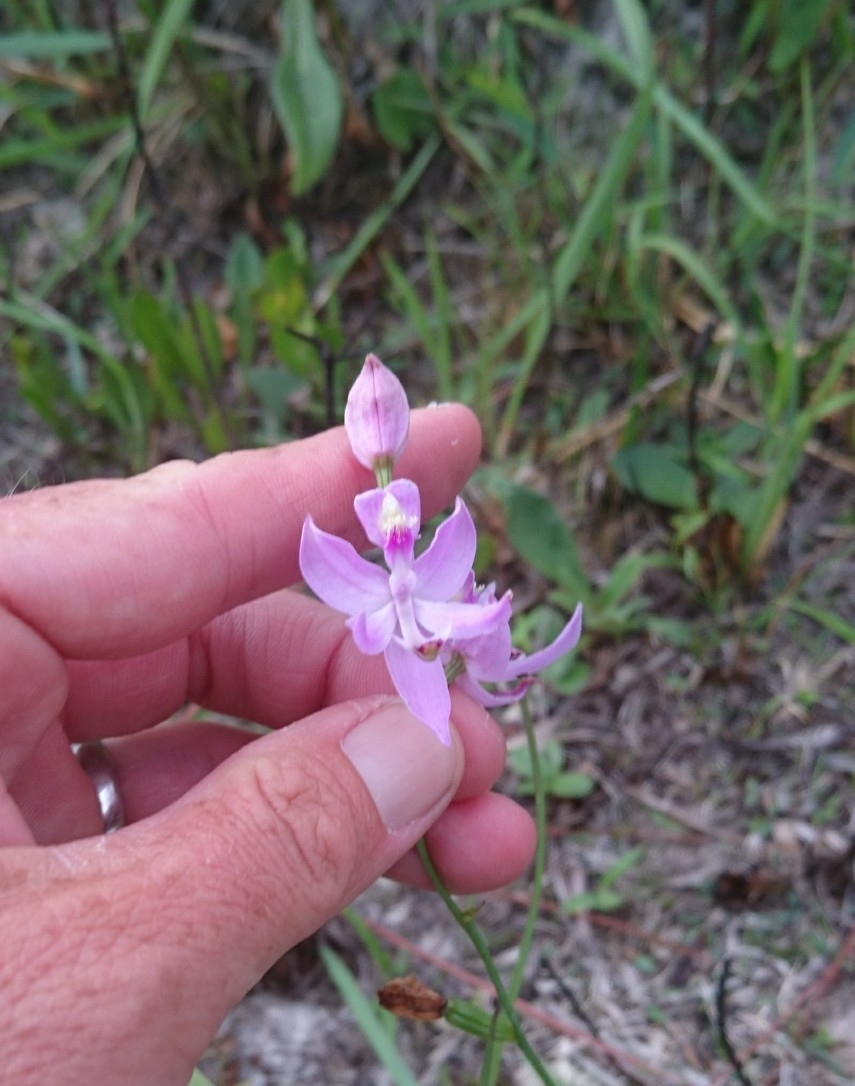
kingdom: Plantae
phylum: Tracheophyta
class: Liliopsida
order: Asparagales
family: Orchidaceae
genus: Calopogon
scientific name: Calopogon pallidus
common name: Pale grasspink
